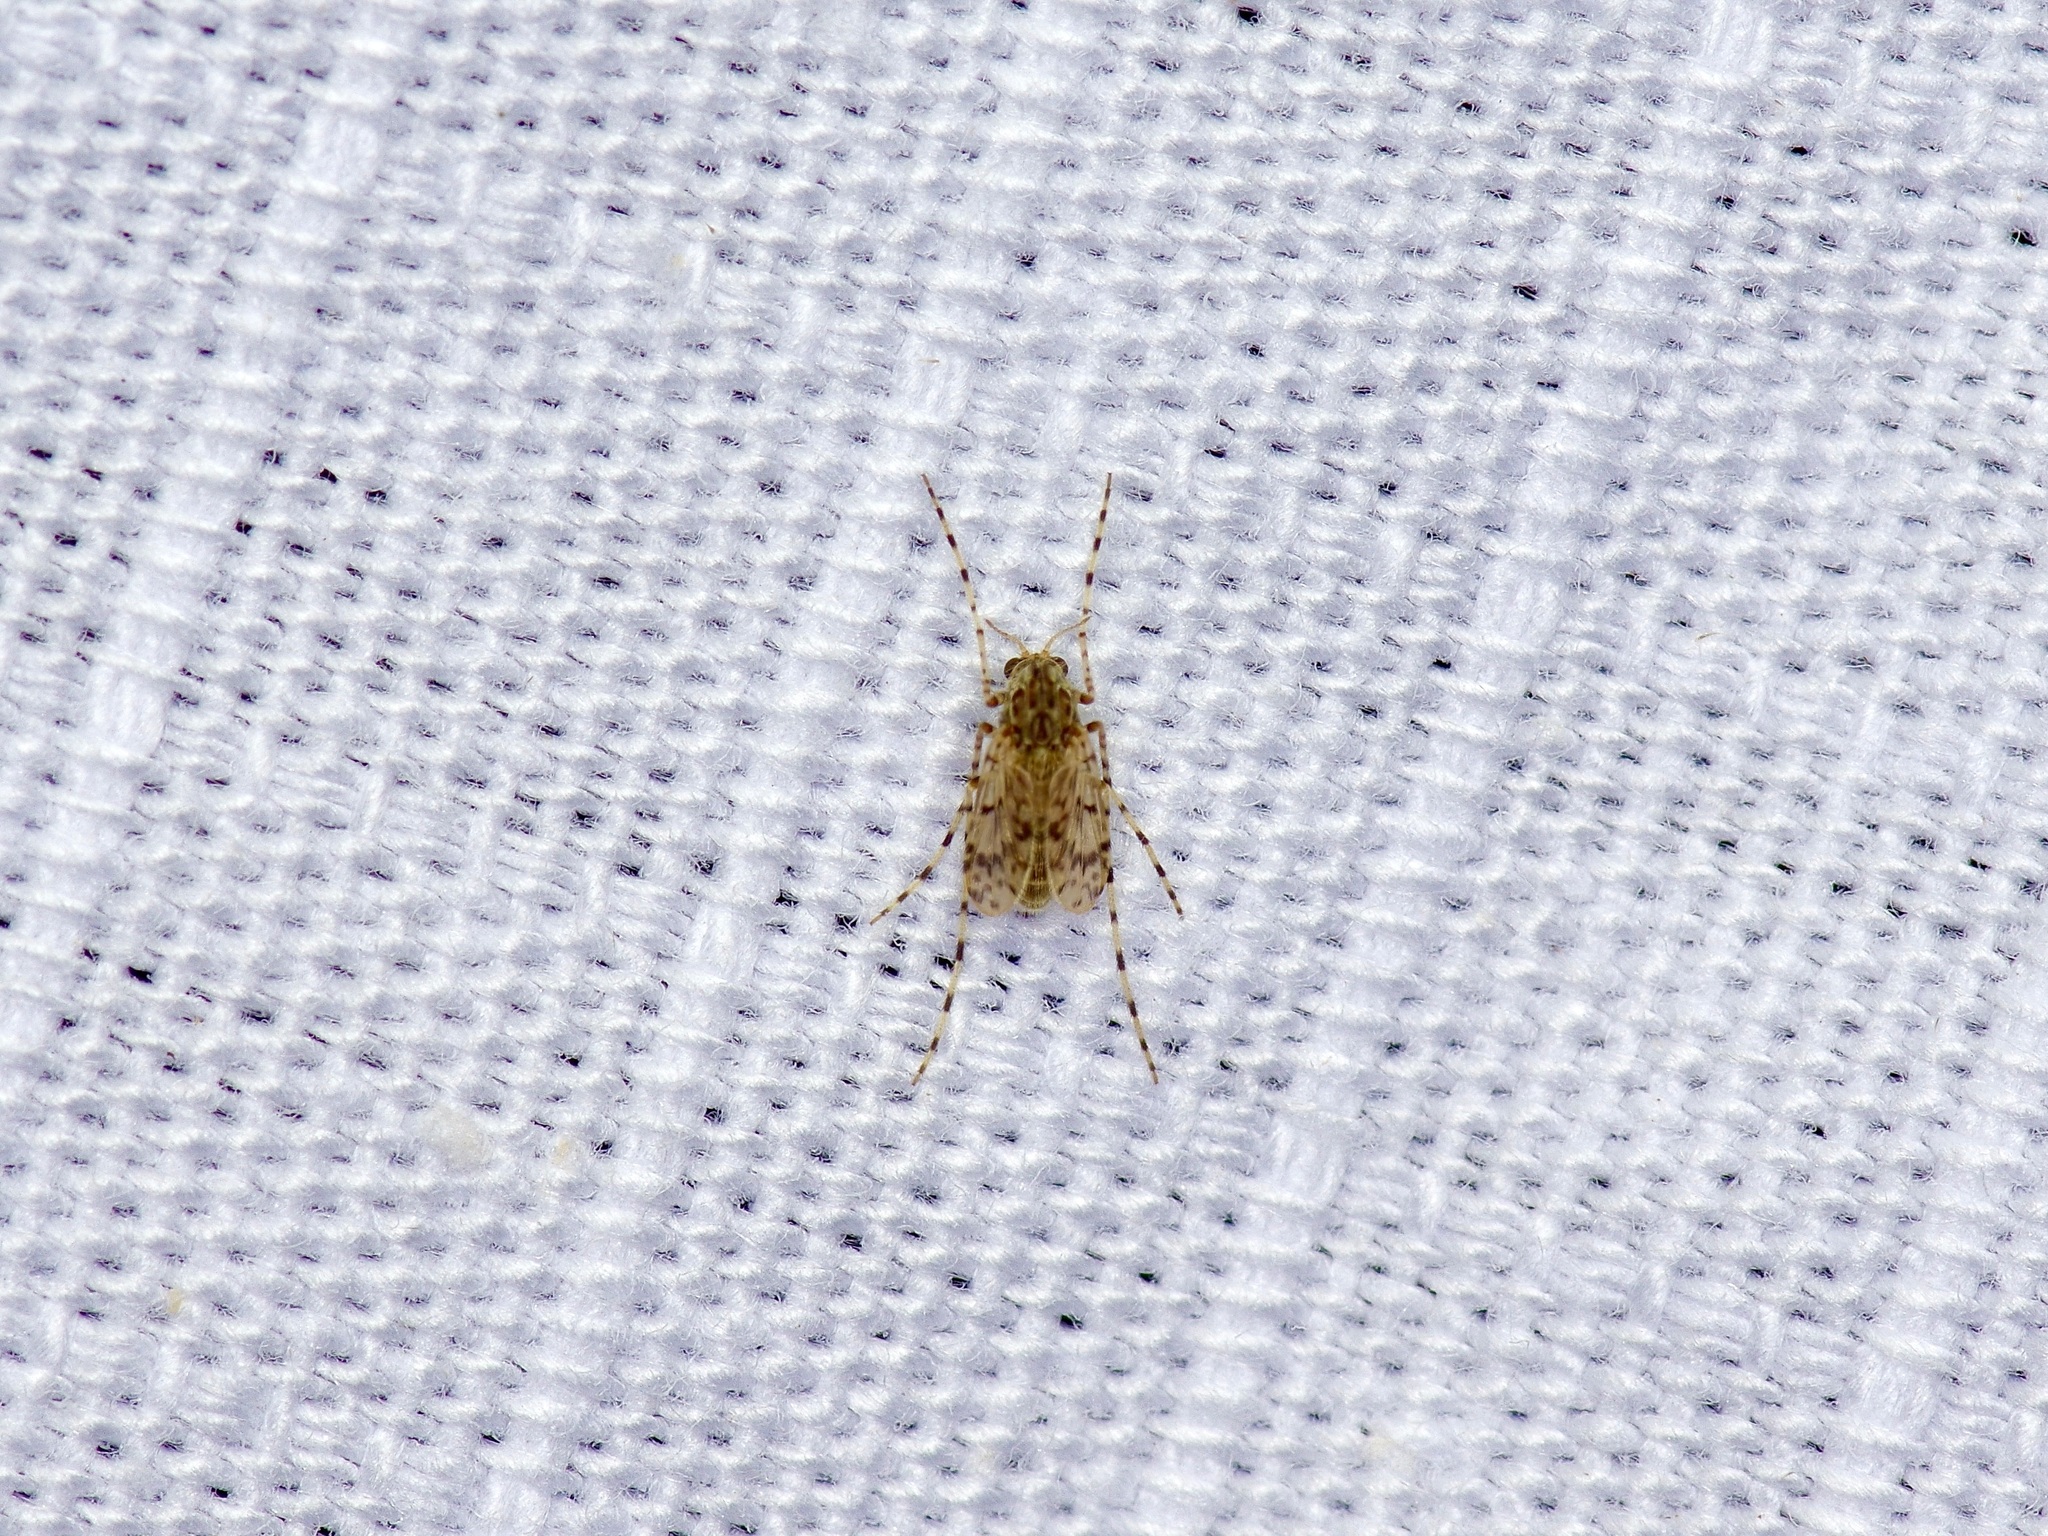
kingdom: Animalia
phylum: Arthropoda
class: Insecta
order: Diptera
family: Chironomidae
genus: Ablabesmyia
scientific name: Ablabesmyia cinctipes
